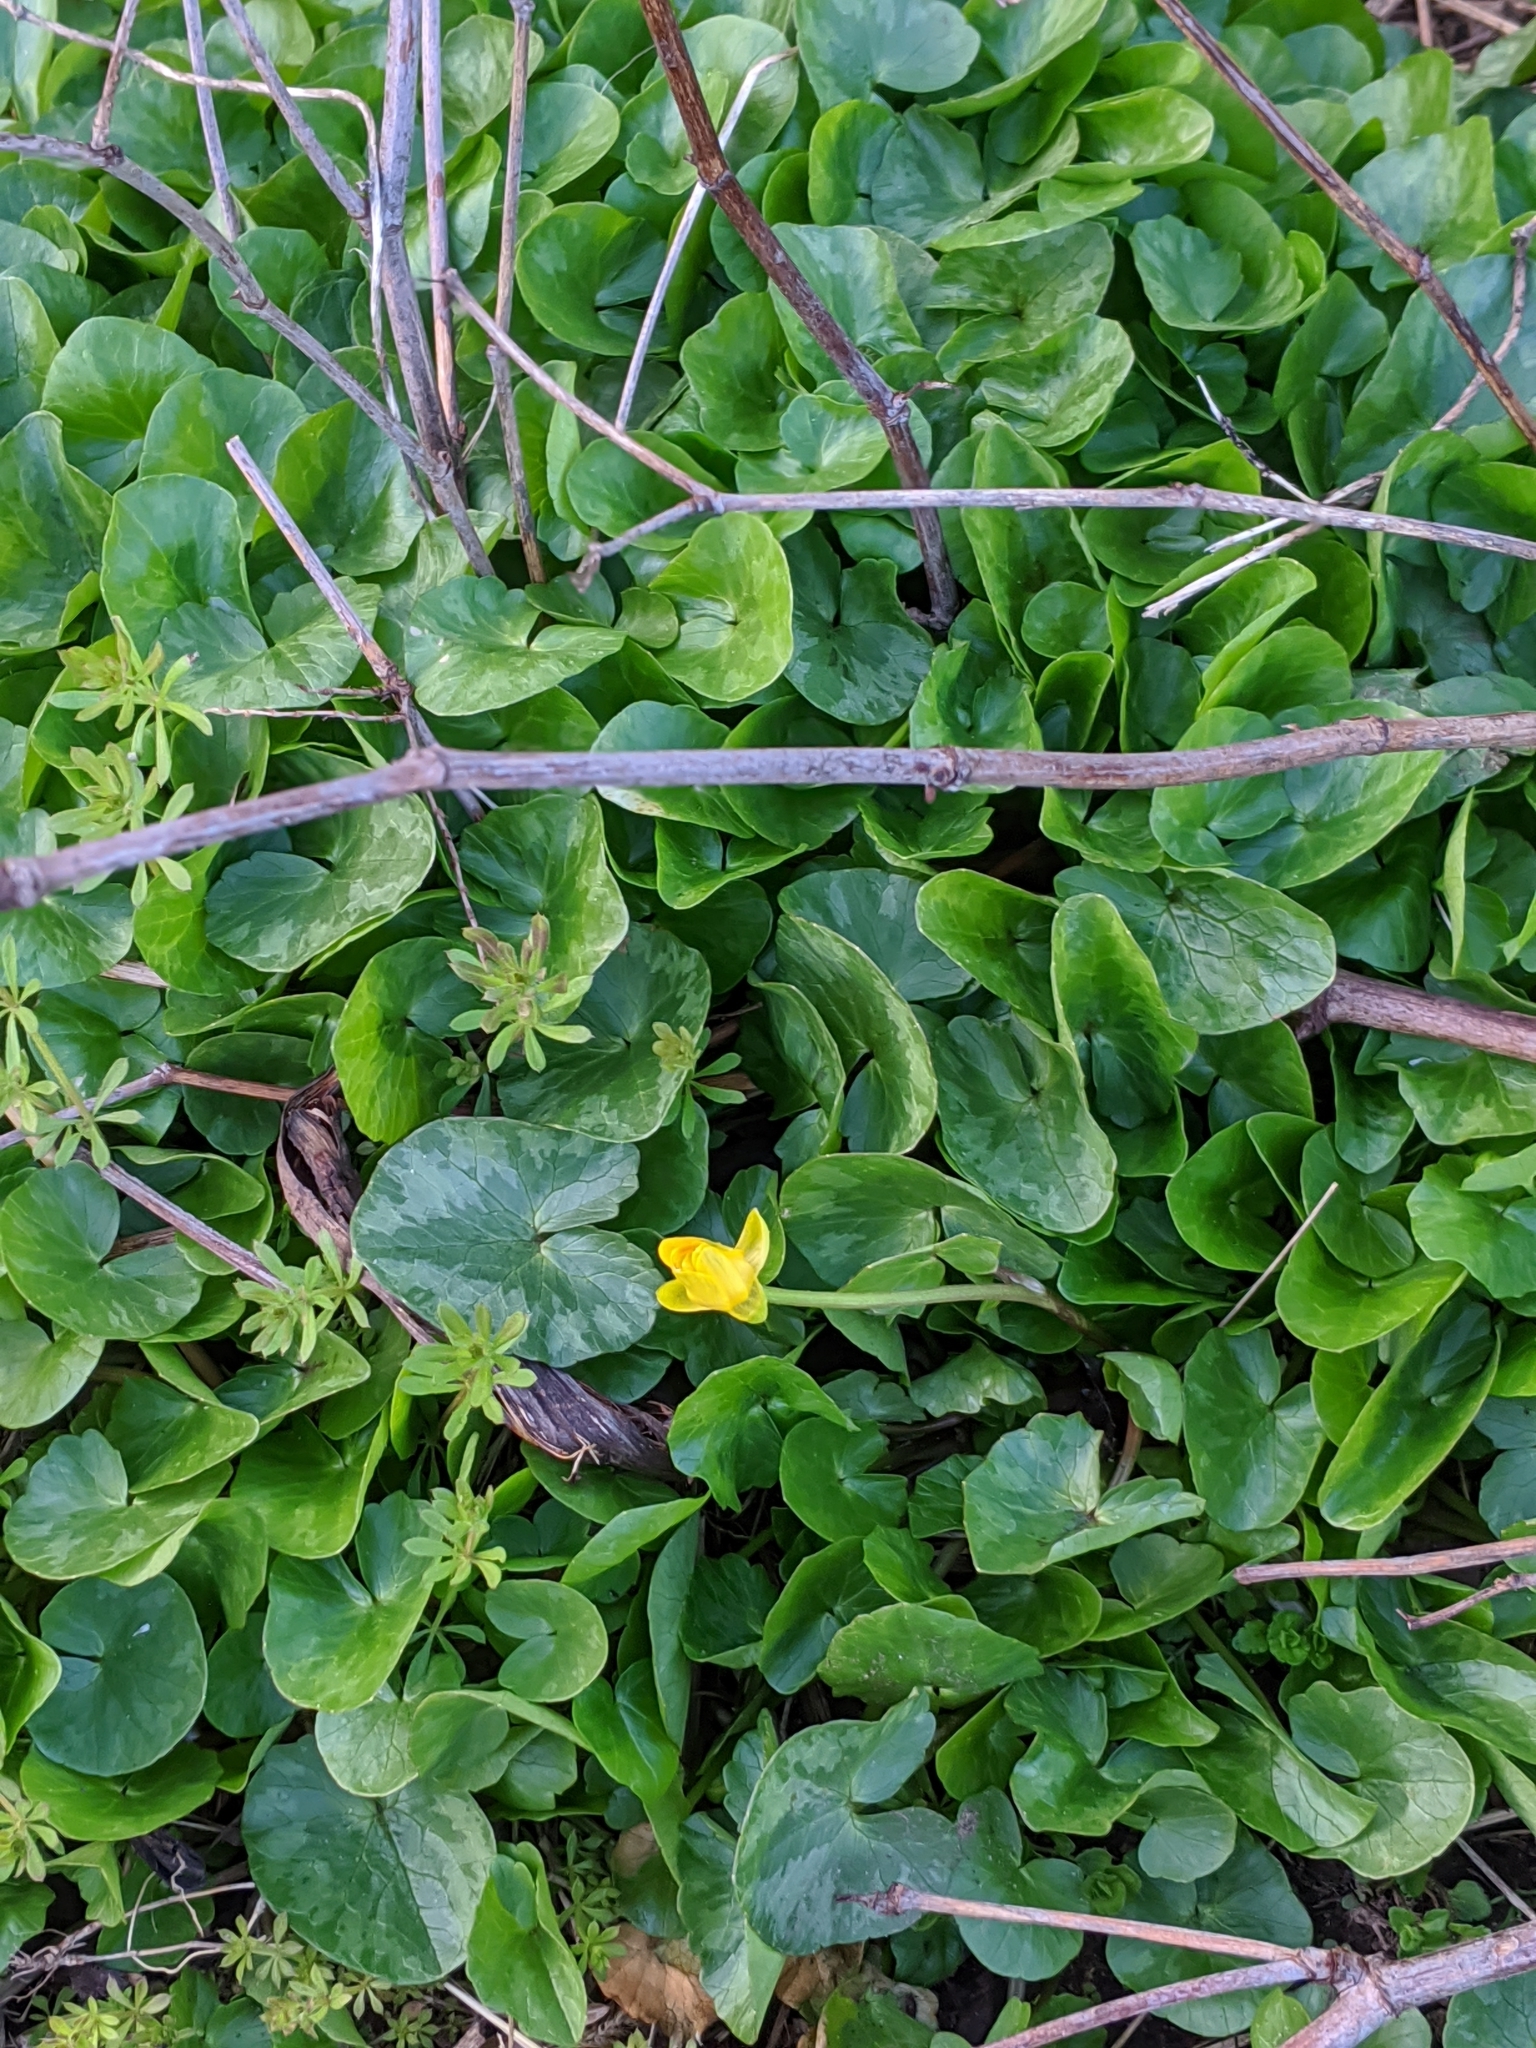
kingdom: Plantae
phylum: Tracheophyta
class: Magnoliopsida
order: Ranunculales
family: Ranunculaceae
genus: Ficaria
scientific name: Ficaria verna
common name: Lesser celandine
